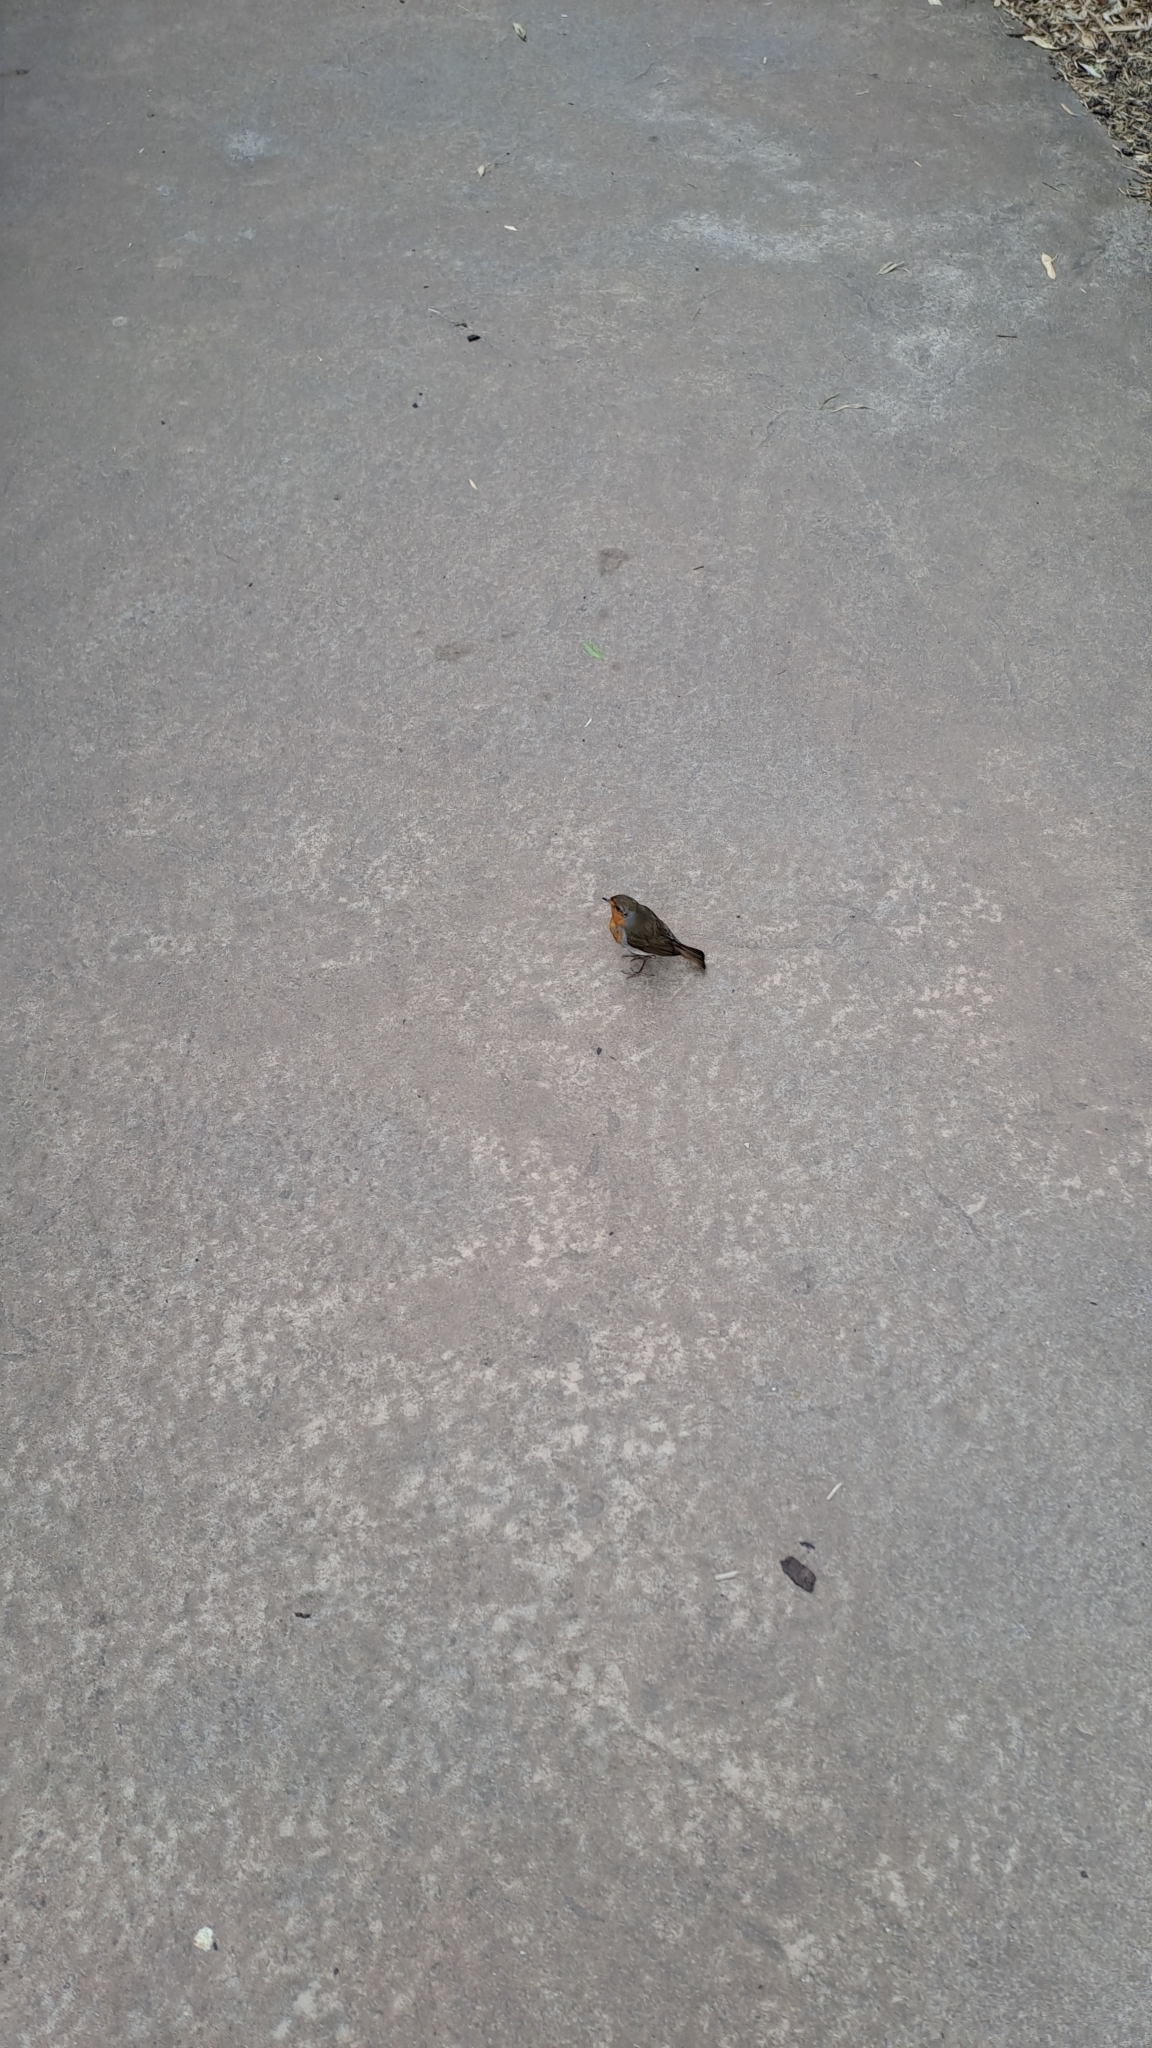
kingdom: Animalia
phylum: Chordata
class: Aves
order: Passeriformes
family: Muscicapidae
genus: Erithacus
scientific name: Erithacus rubecula
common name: European robin
